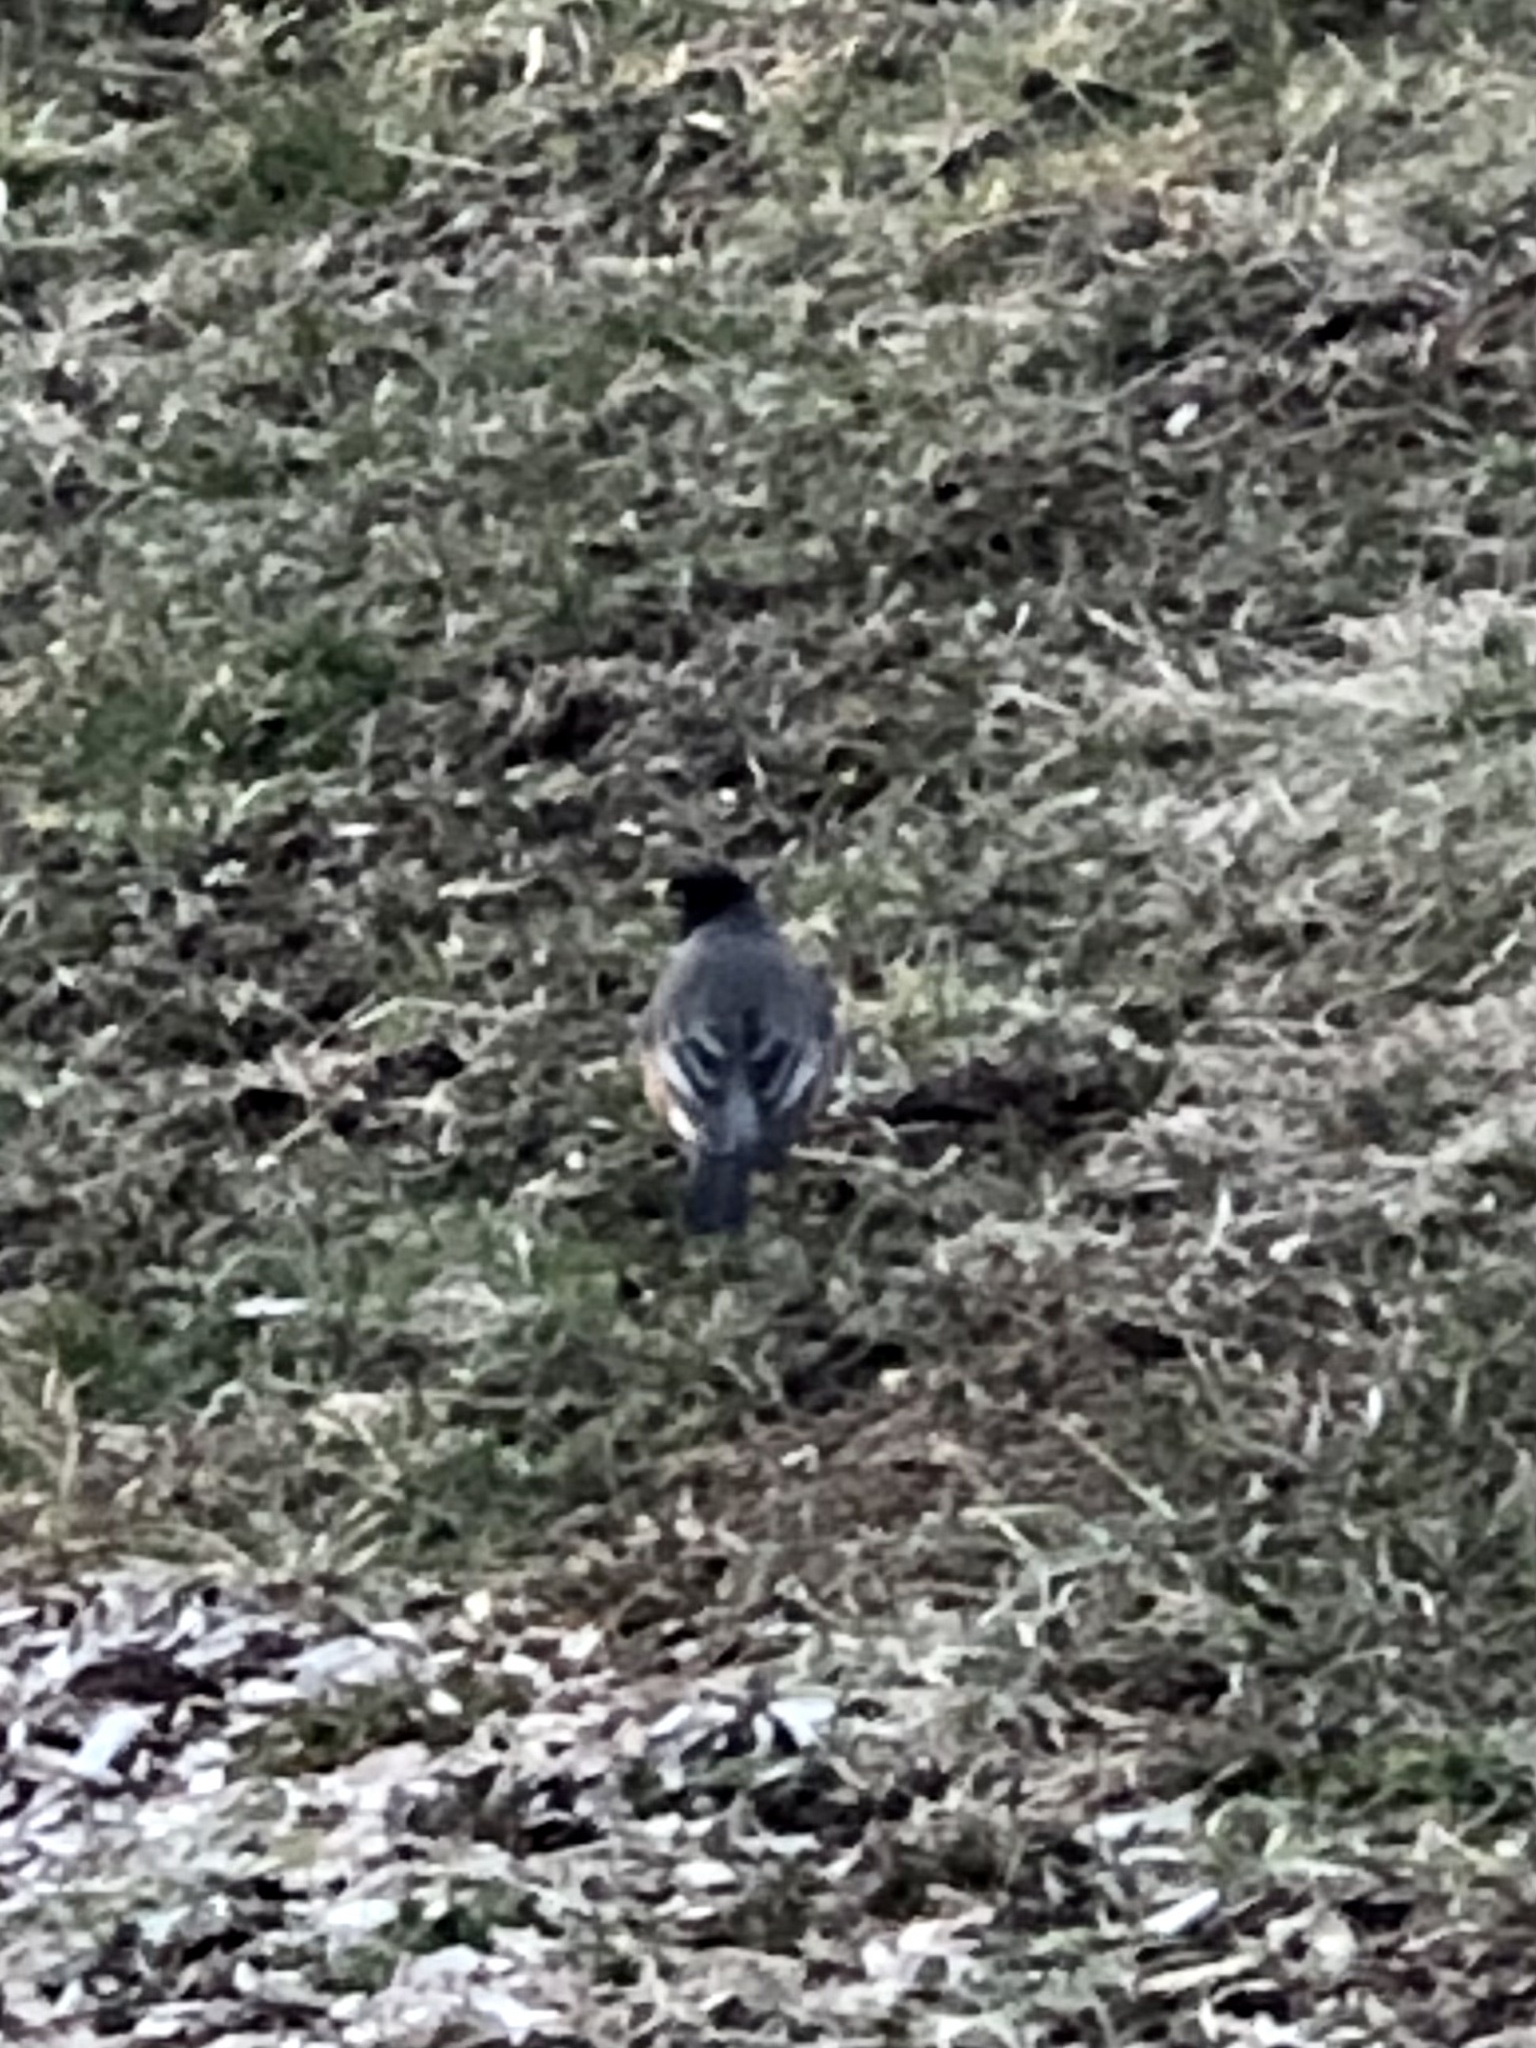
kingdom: Animalia
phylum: Chordata
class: Aves
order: Passeriformes
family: Turdidae
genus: Turdus
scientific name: Turdus migratorius
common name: American robin
